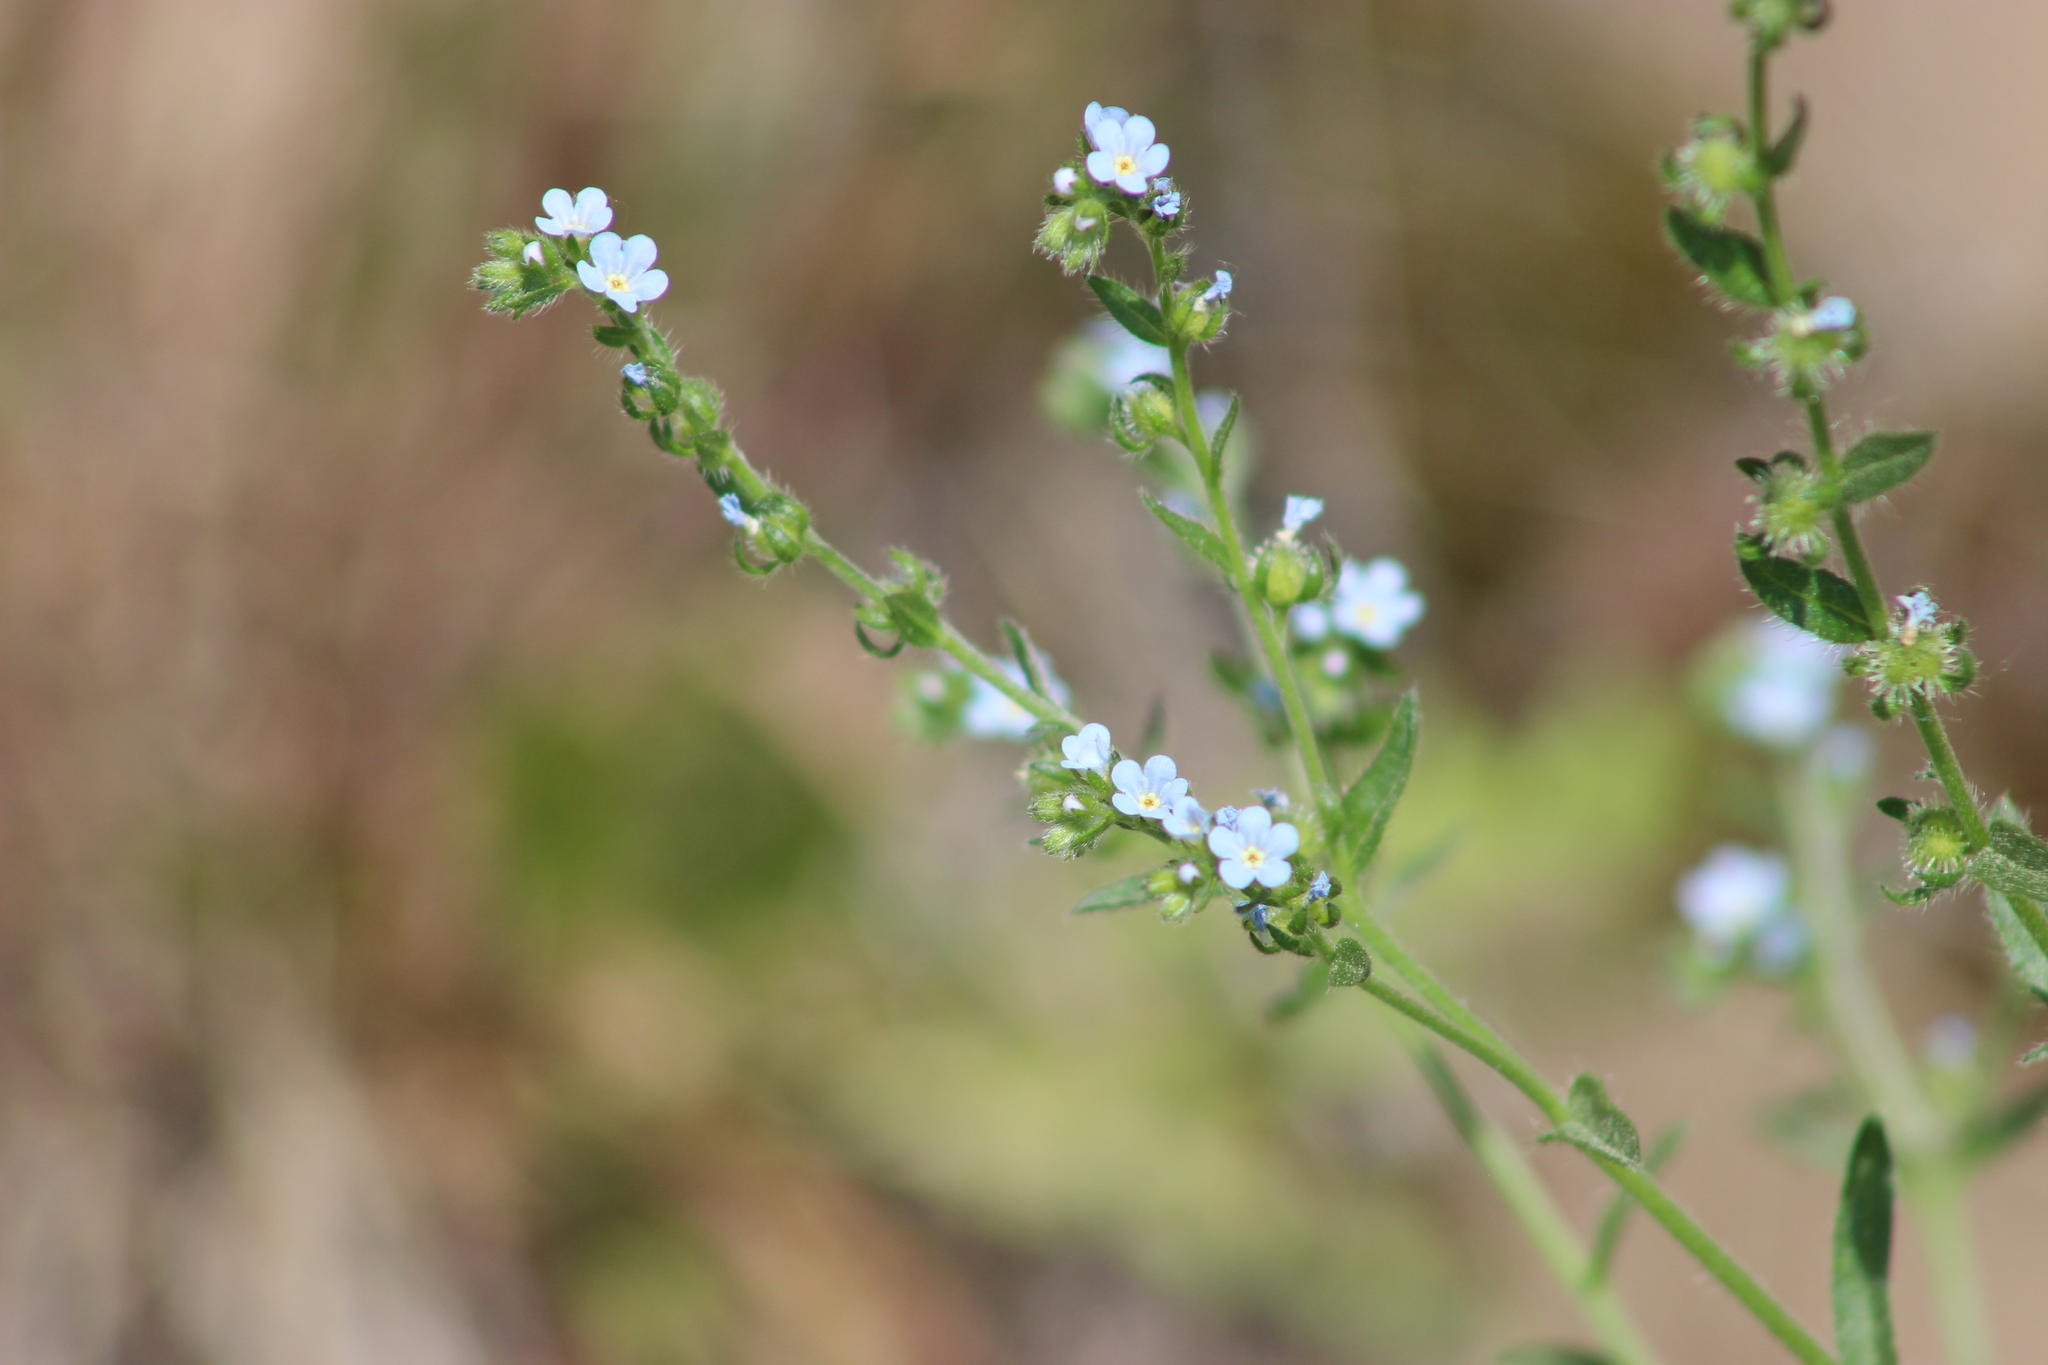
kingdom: Plantae
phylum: Tracheophyta
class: Magnoliopsida
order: Boraginales
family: Boraginaceae
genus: Hackelia
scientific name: Hackelia deflexa
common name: Nodding stickseed
